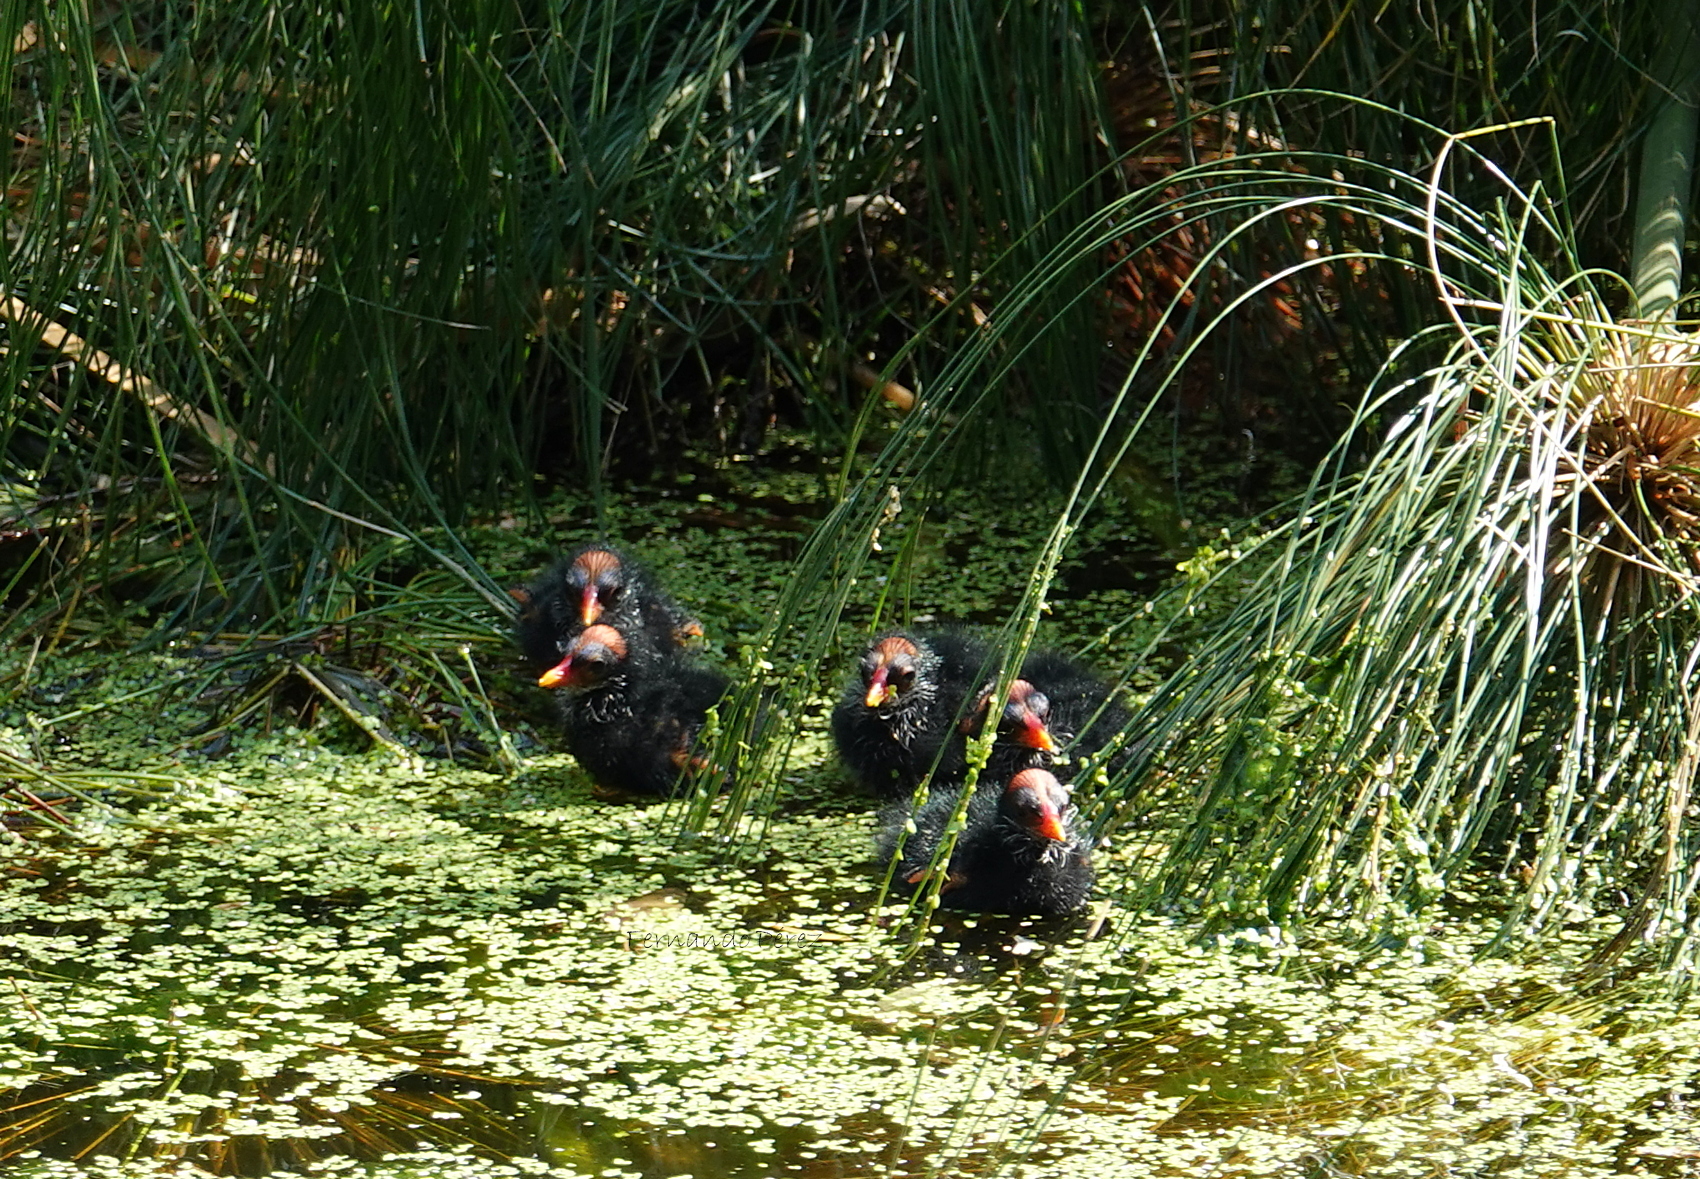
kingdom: Animalia
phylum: Chordata
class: Aves
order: Gruiformes
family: Rallidae
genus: Gallinula
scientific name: Gallinula chloropus
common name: Common moorhen
